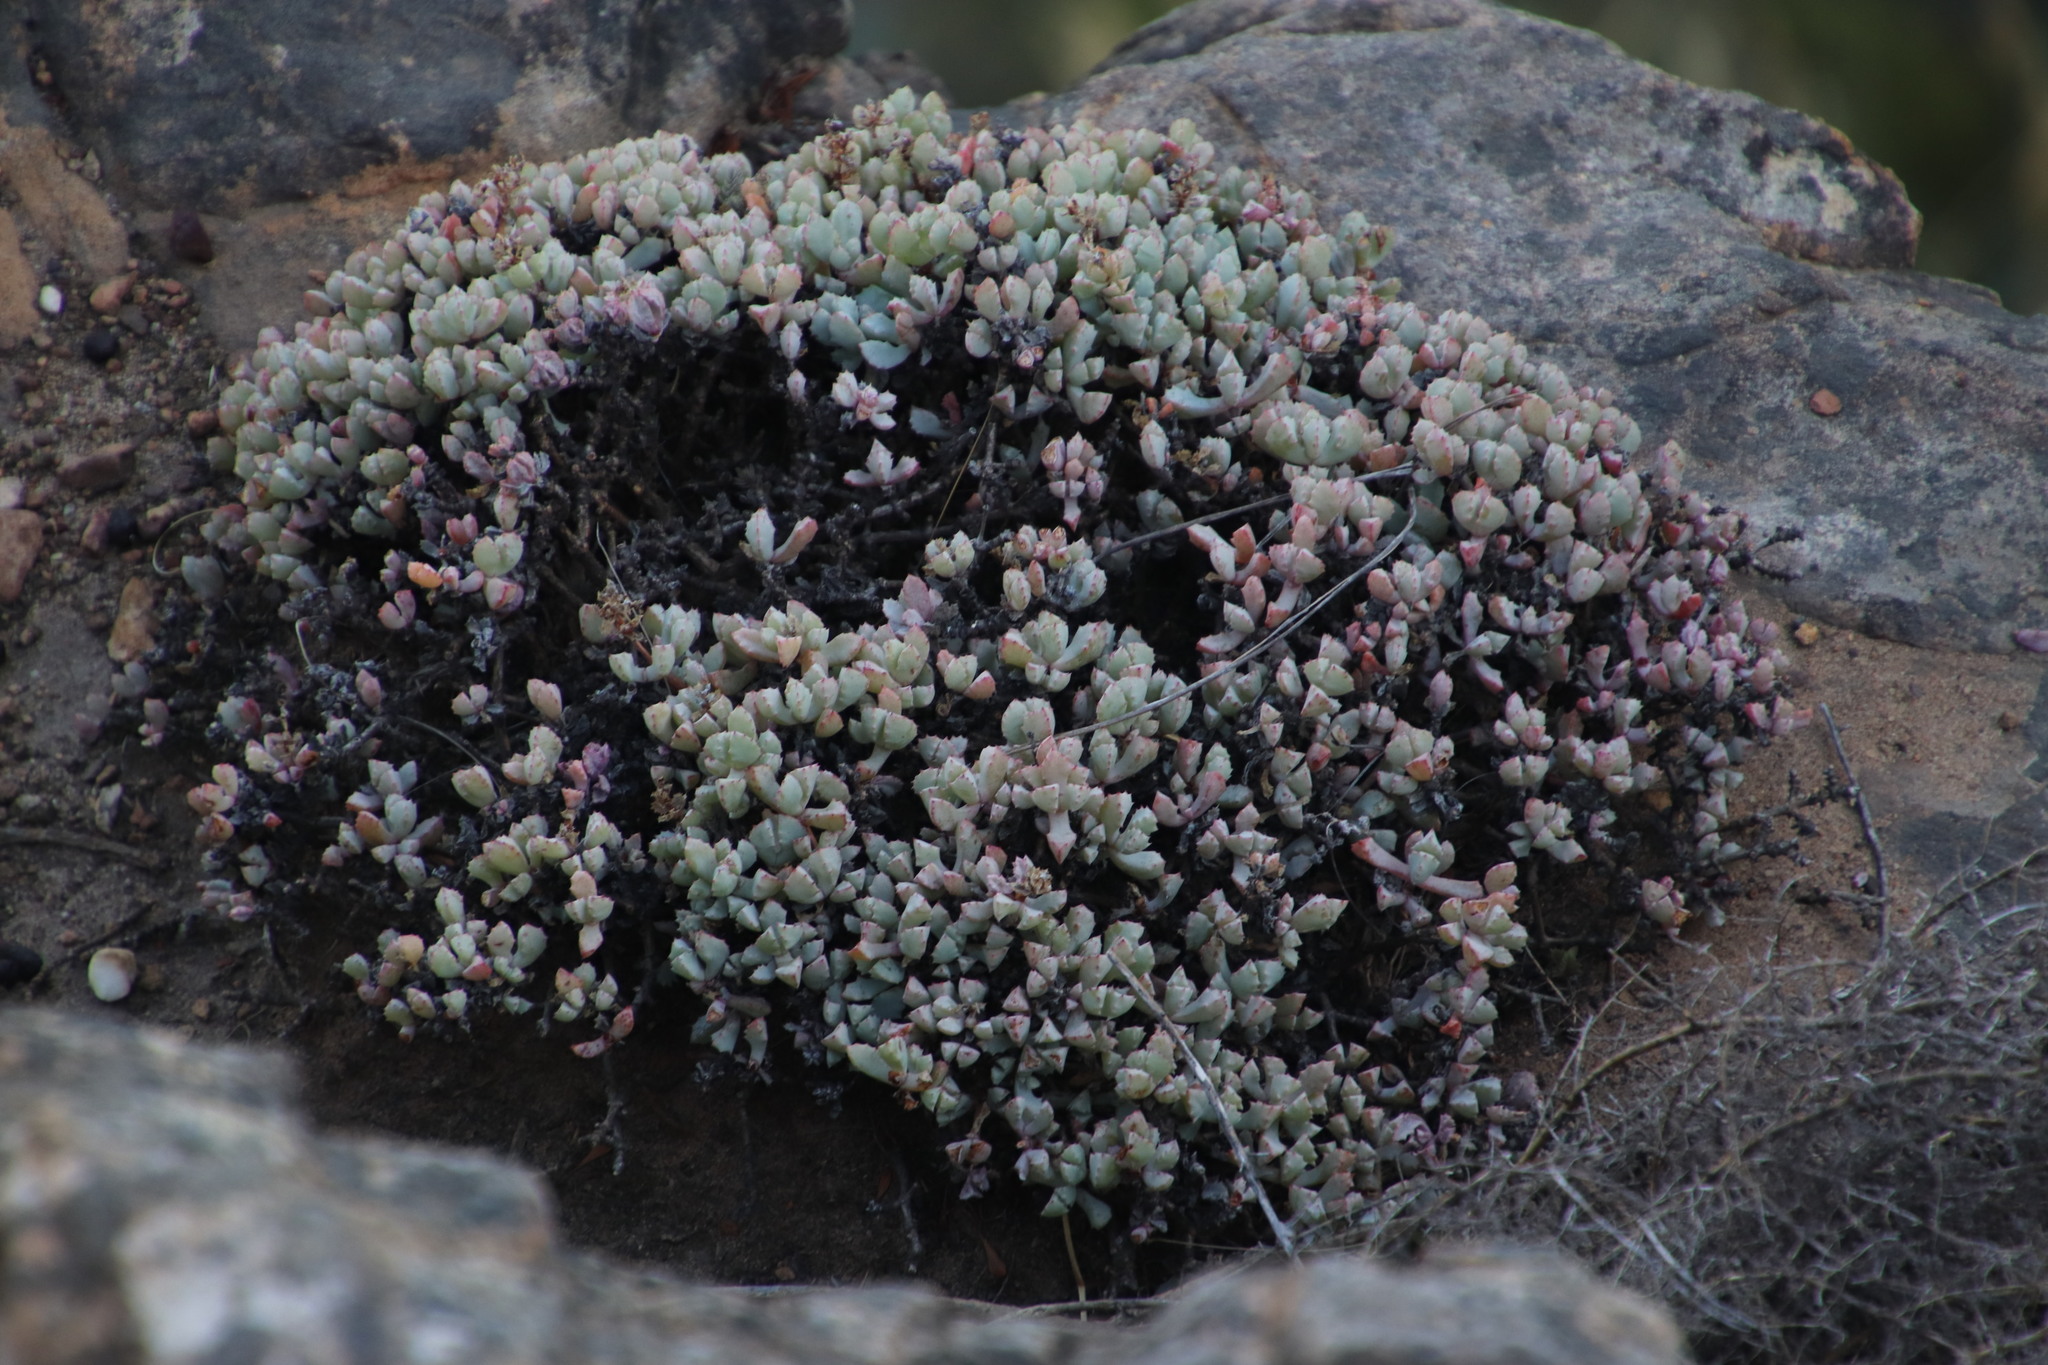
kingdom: Plantae
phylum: Tracheophyta
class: Magnoliopsida
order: Caryophyllales
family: Aizoaceae
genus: Oscularia
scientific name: Oscularia deltoides
